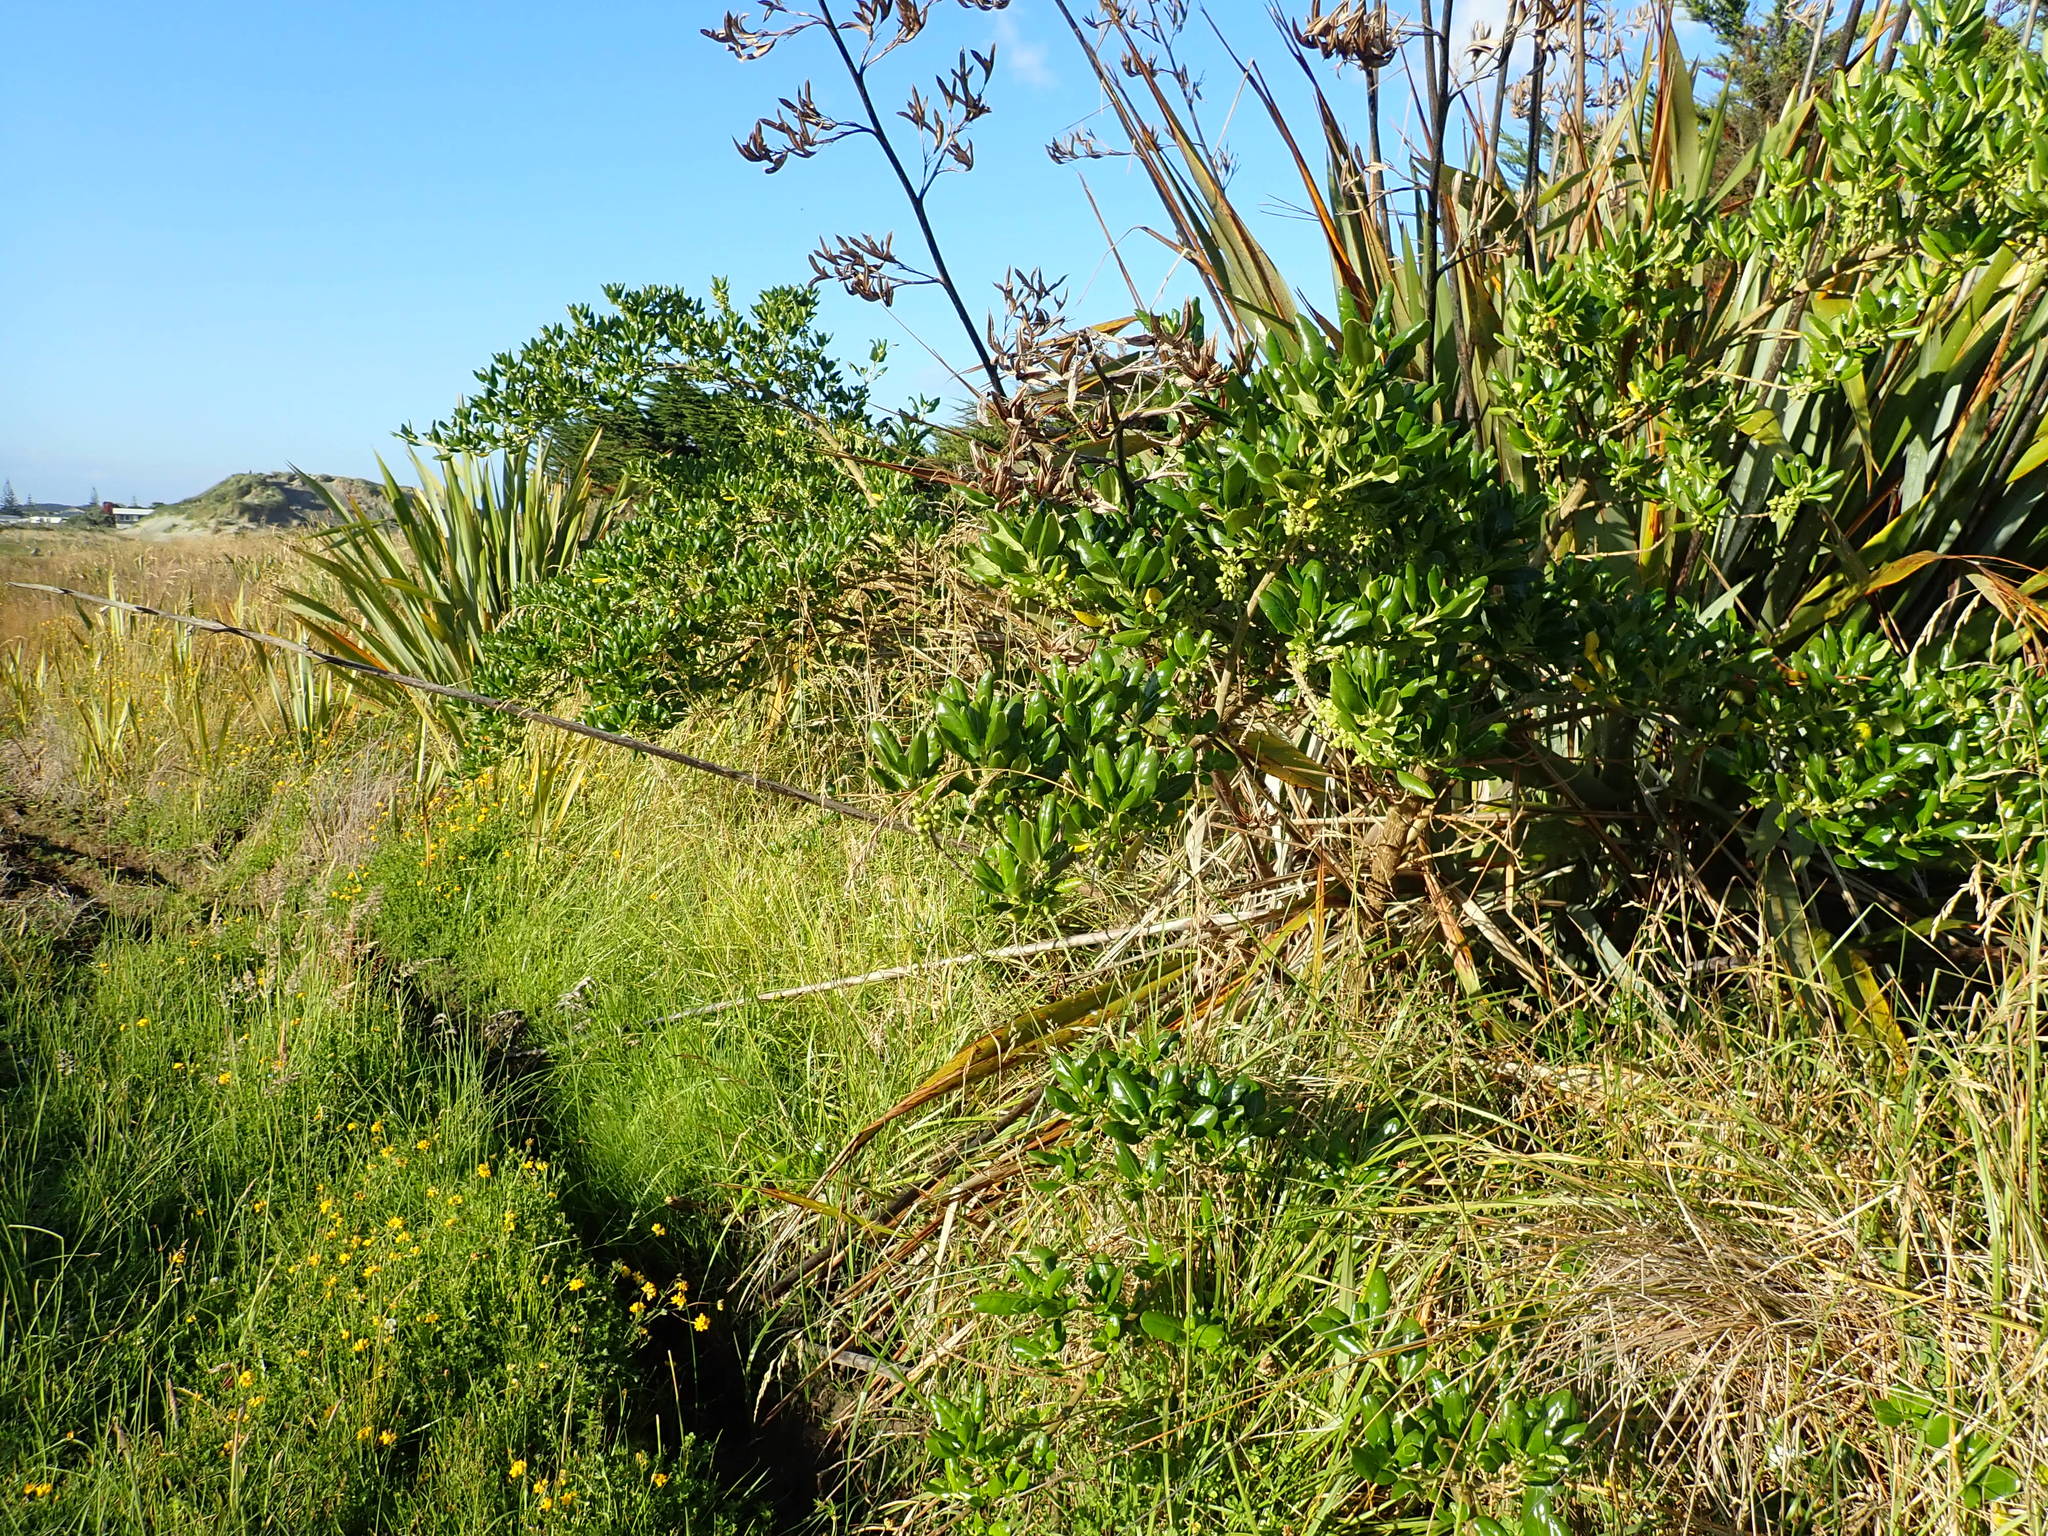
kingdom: Plantae
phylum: Tracheophyta
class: Magnoliopsida
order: Gentianales
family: Rubiaceae
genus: Coprosma
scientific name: Coprosma repens
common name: Tree bedstraw
